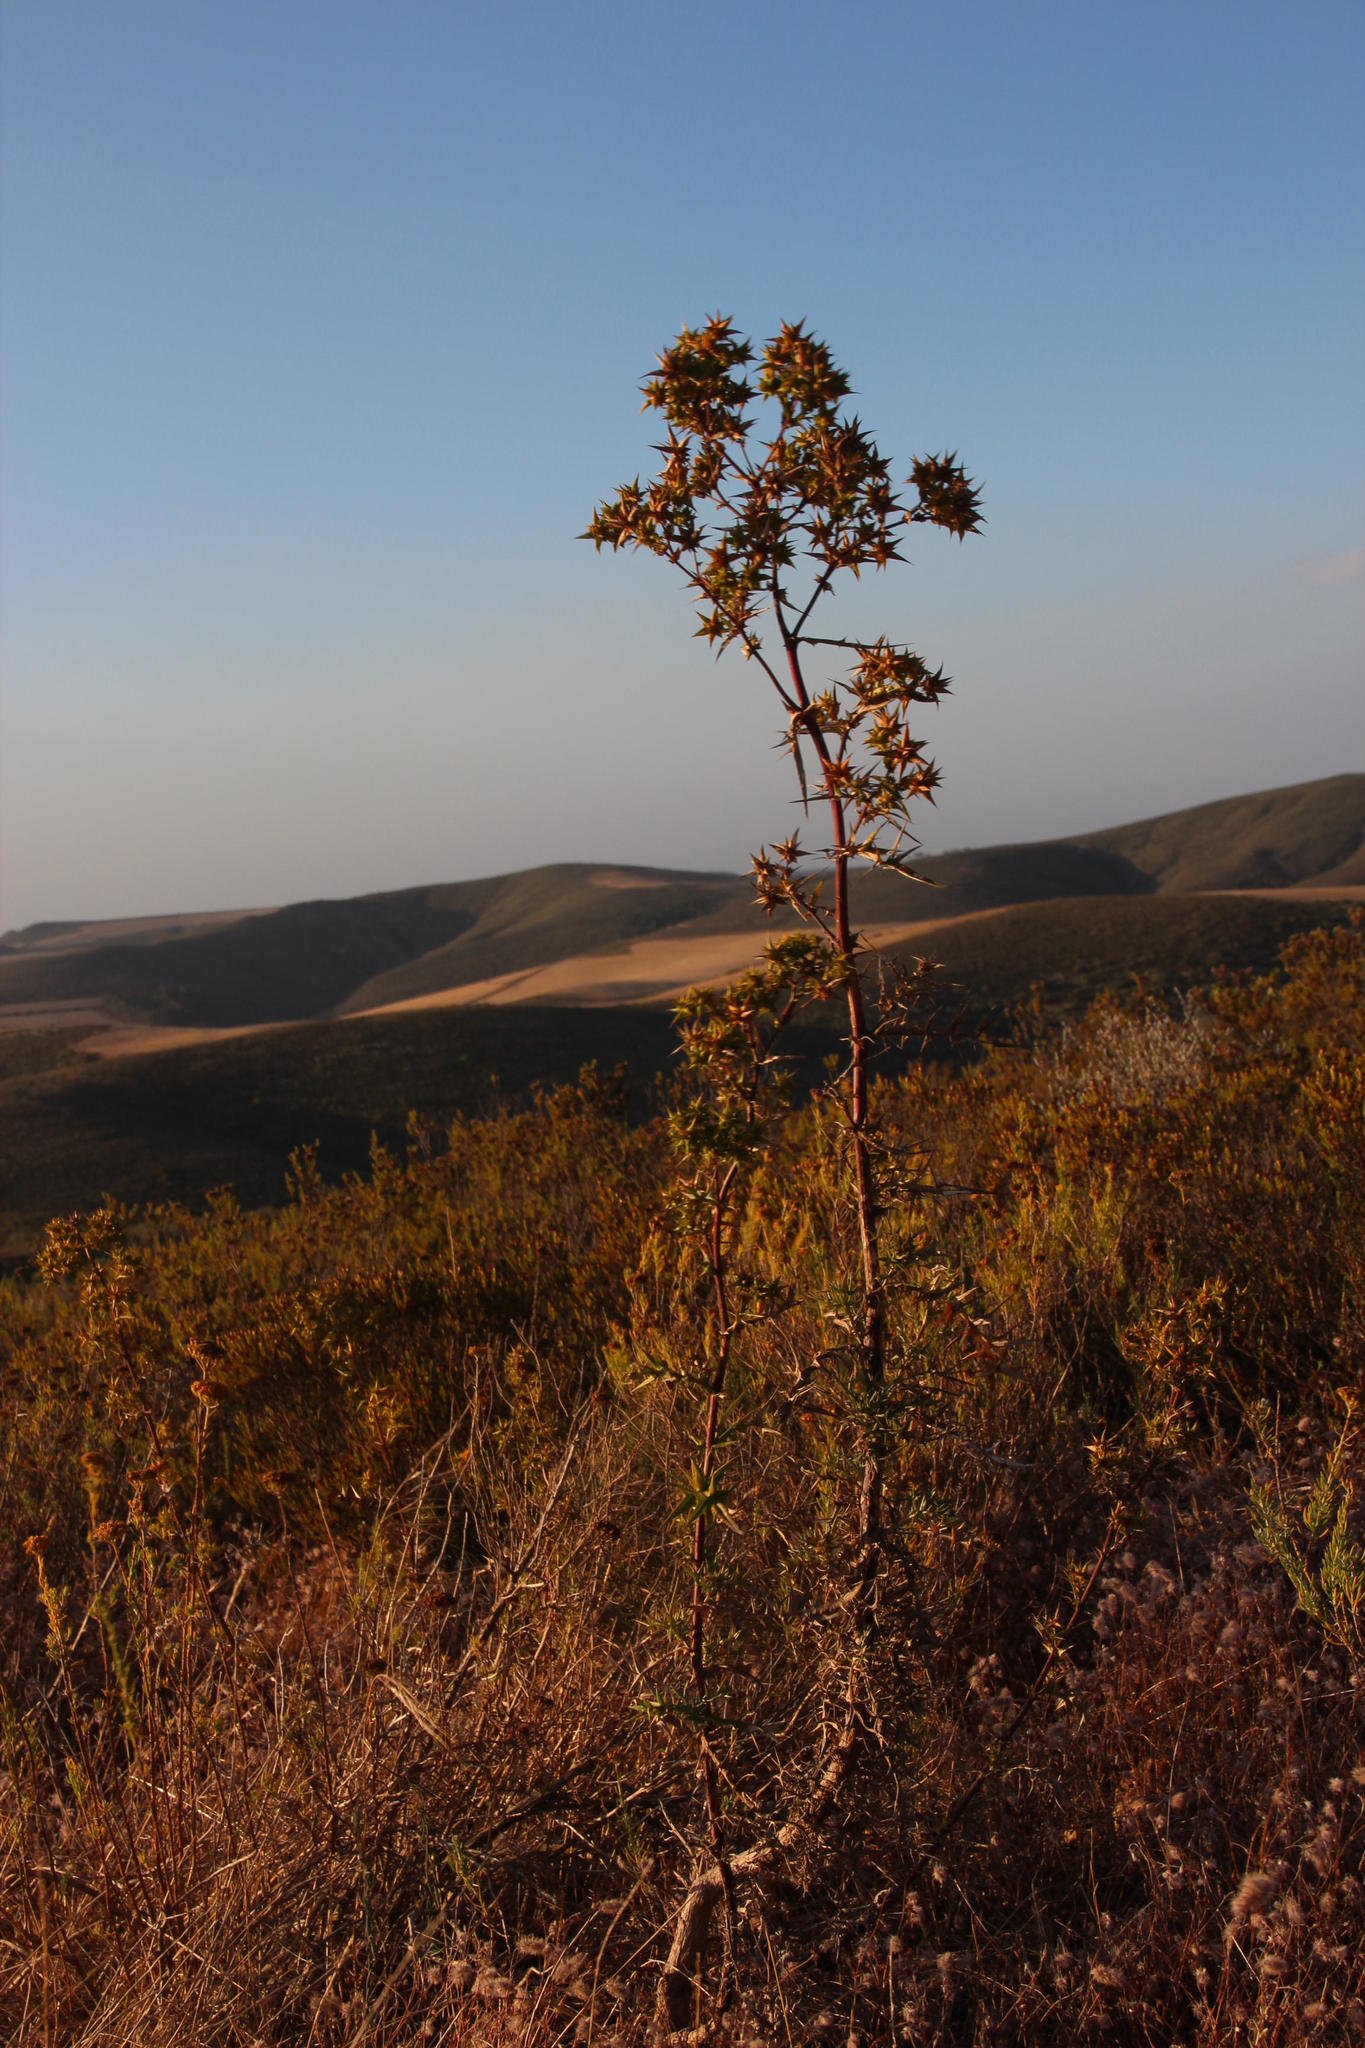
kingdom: Plantae
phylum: Tracheophyta
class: Magnoliopsida
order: Asterales
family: Asteraceae
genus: Berkheya
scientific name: Berkheya rigida
